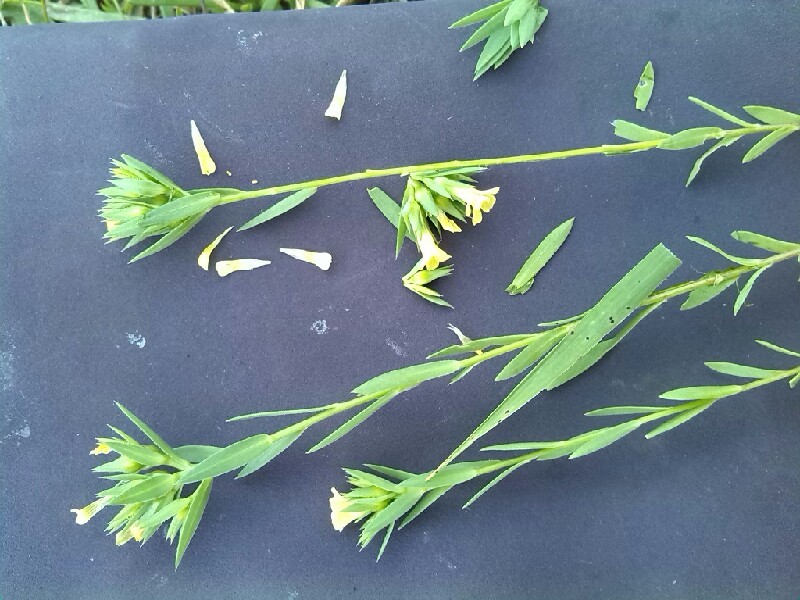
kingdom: Plantae
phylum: Tracheophyta
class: Magnoliopsida
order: Malpighiales
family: Linaceae
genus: Linum
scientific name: Linum strictum
